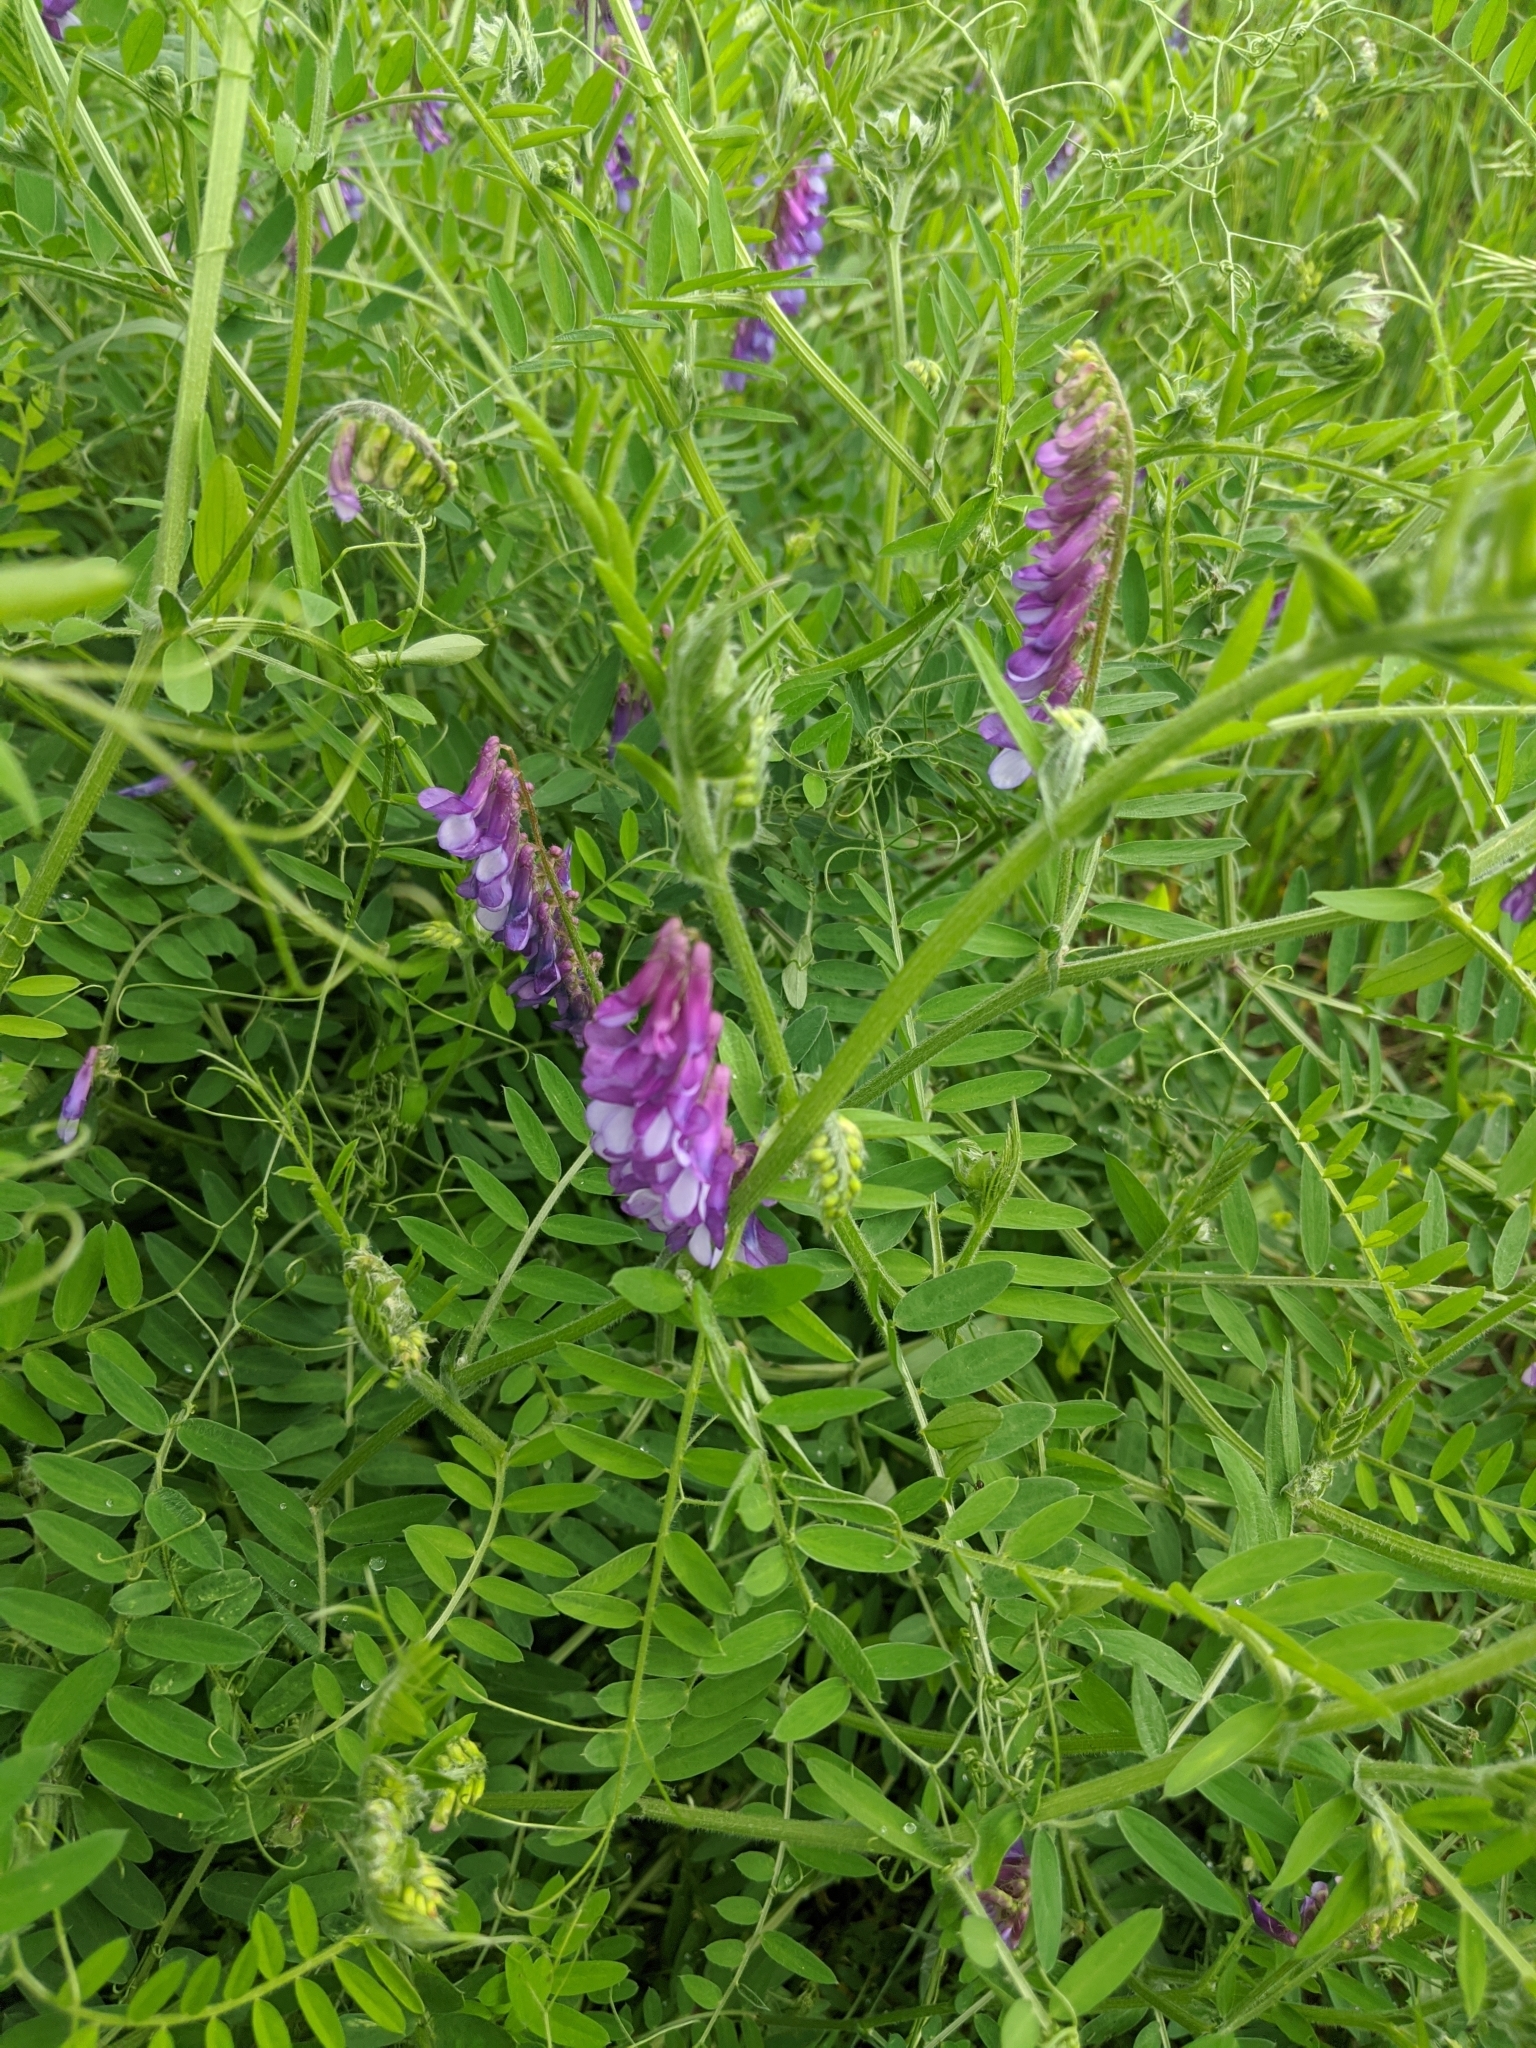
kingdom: Plantae
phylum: Tracheophyta
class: Magnoliopsida
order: Fabales
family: Fabaceae
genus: Vicia
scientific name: Vicia villosa
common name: Fodder vetch
